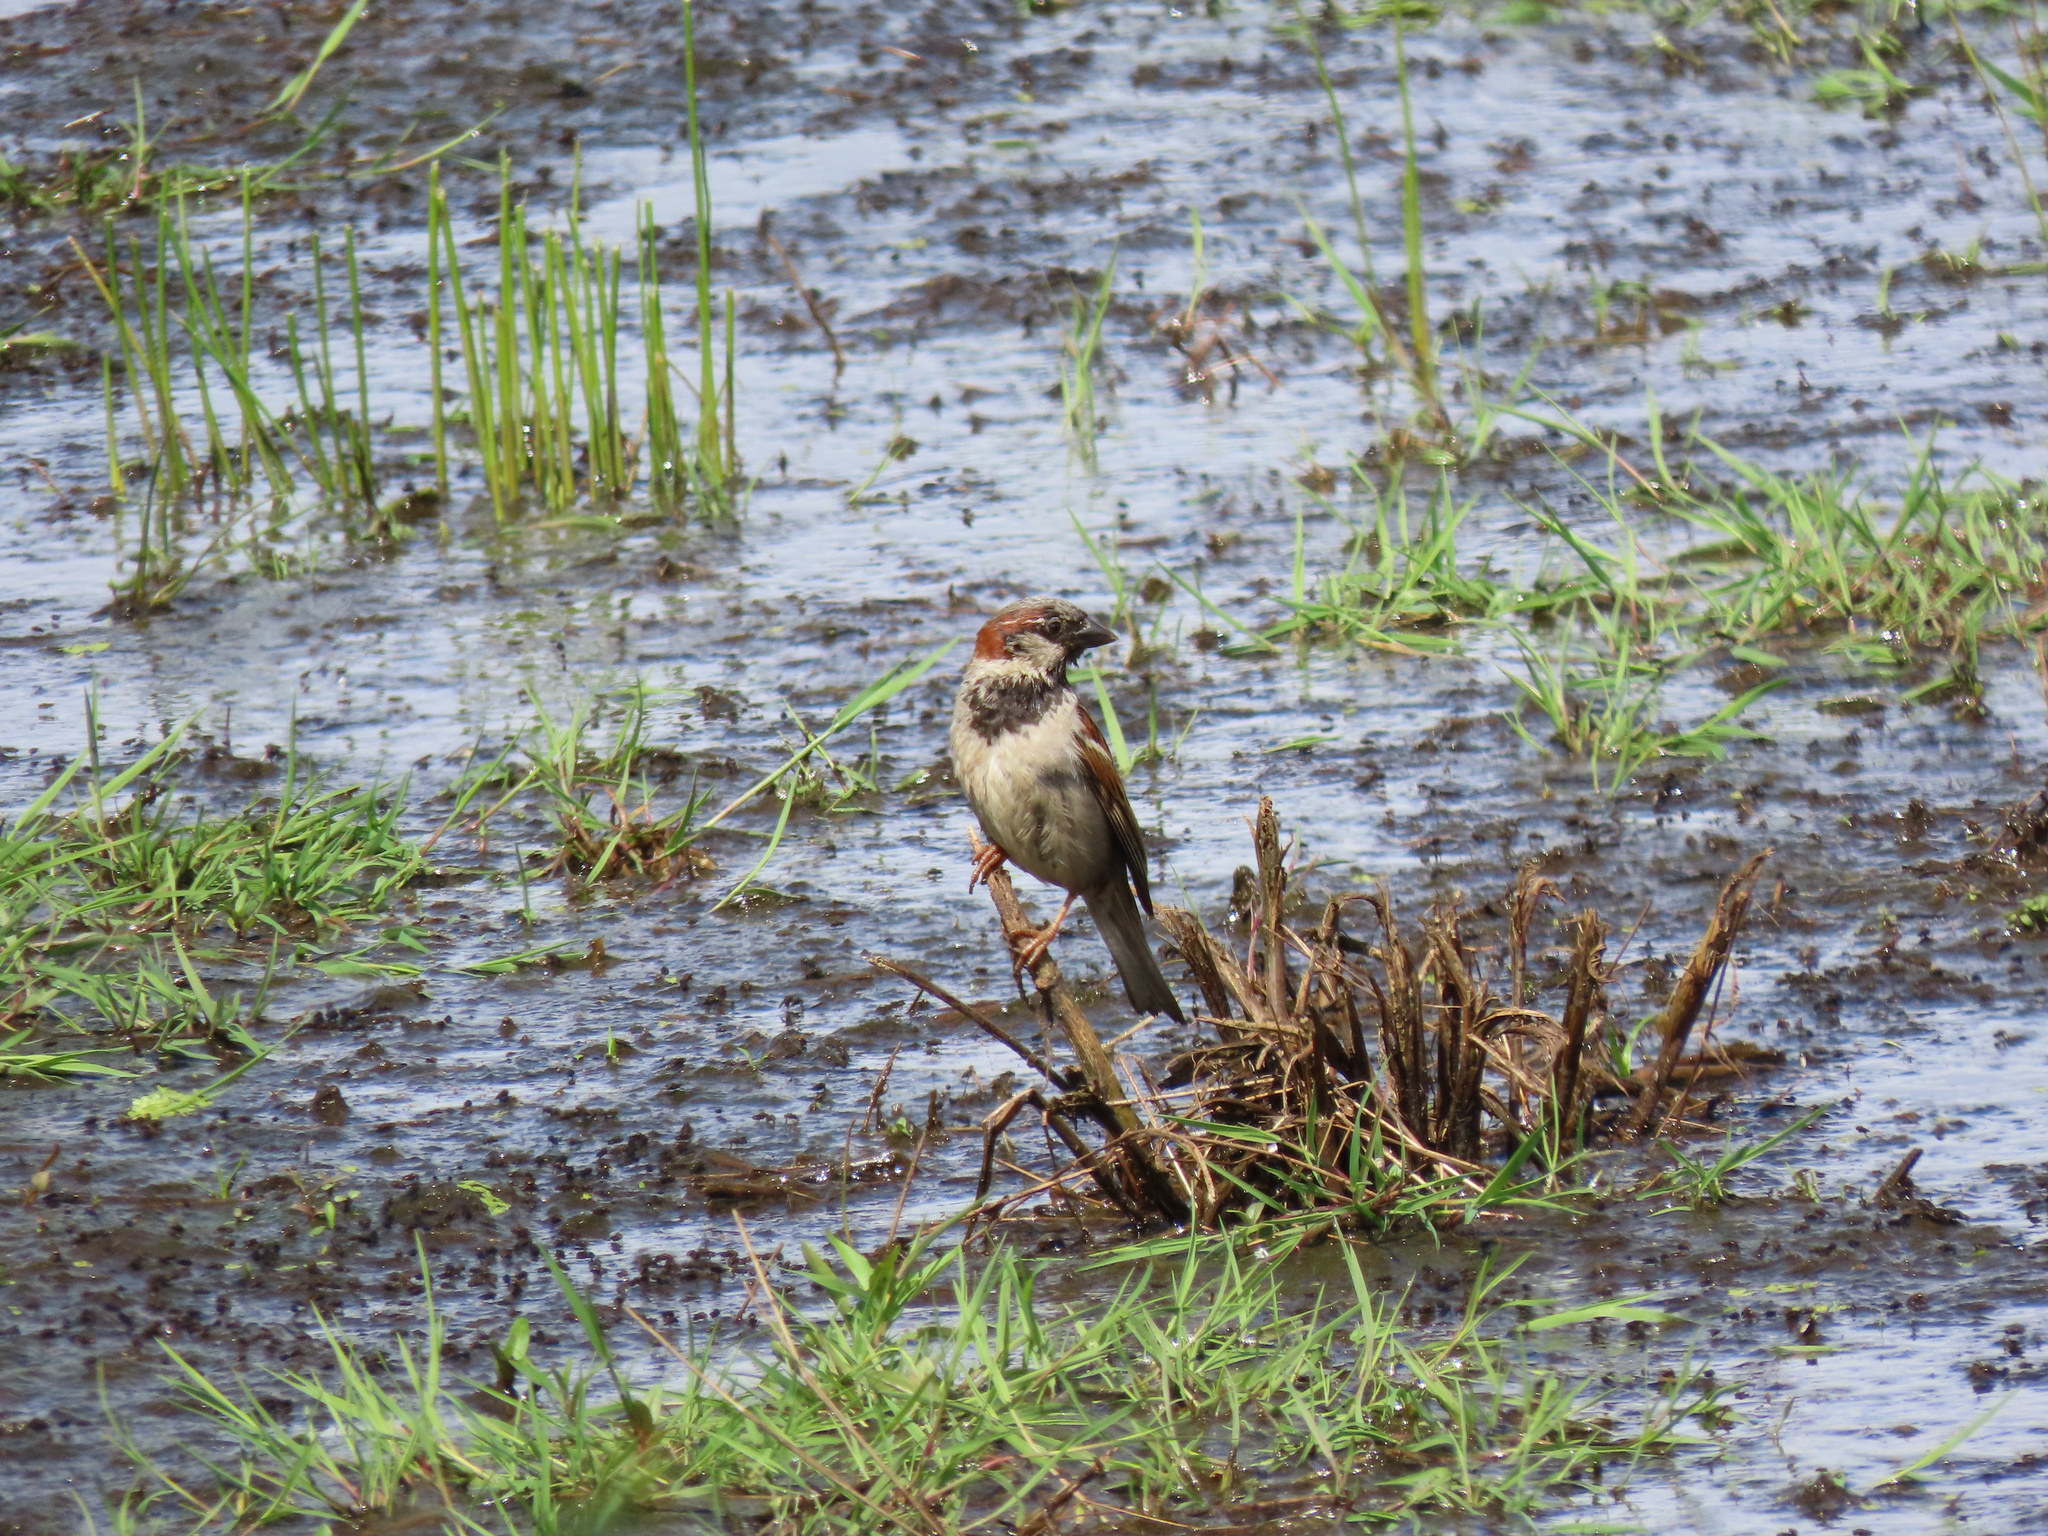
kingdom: Animalia
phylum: Chordata
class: Aves
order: Passeriformes
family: Passeridae
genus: Passer
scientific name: Passer domesticus
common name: House sparrow
